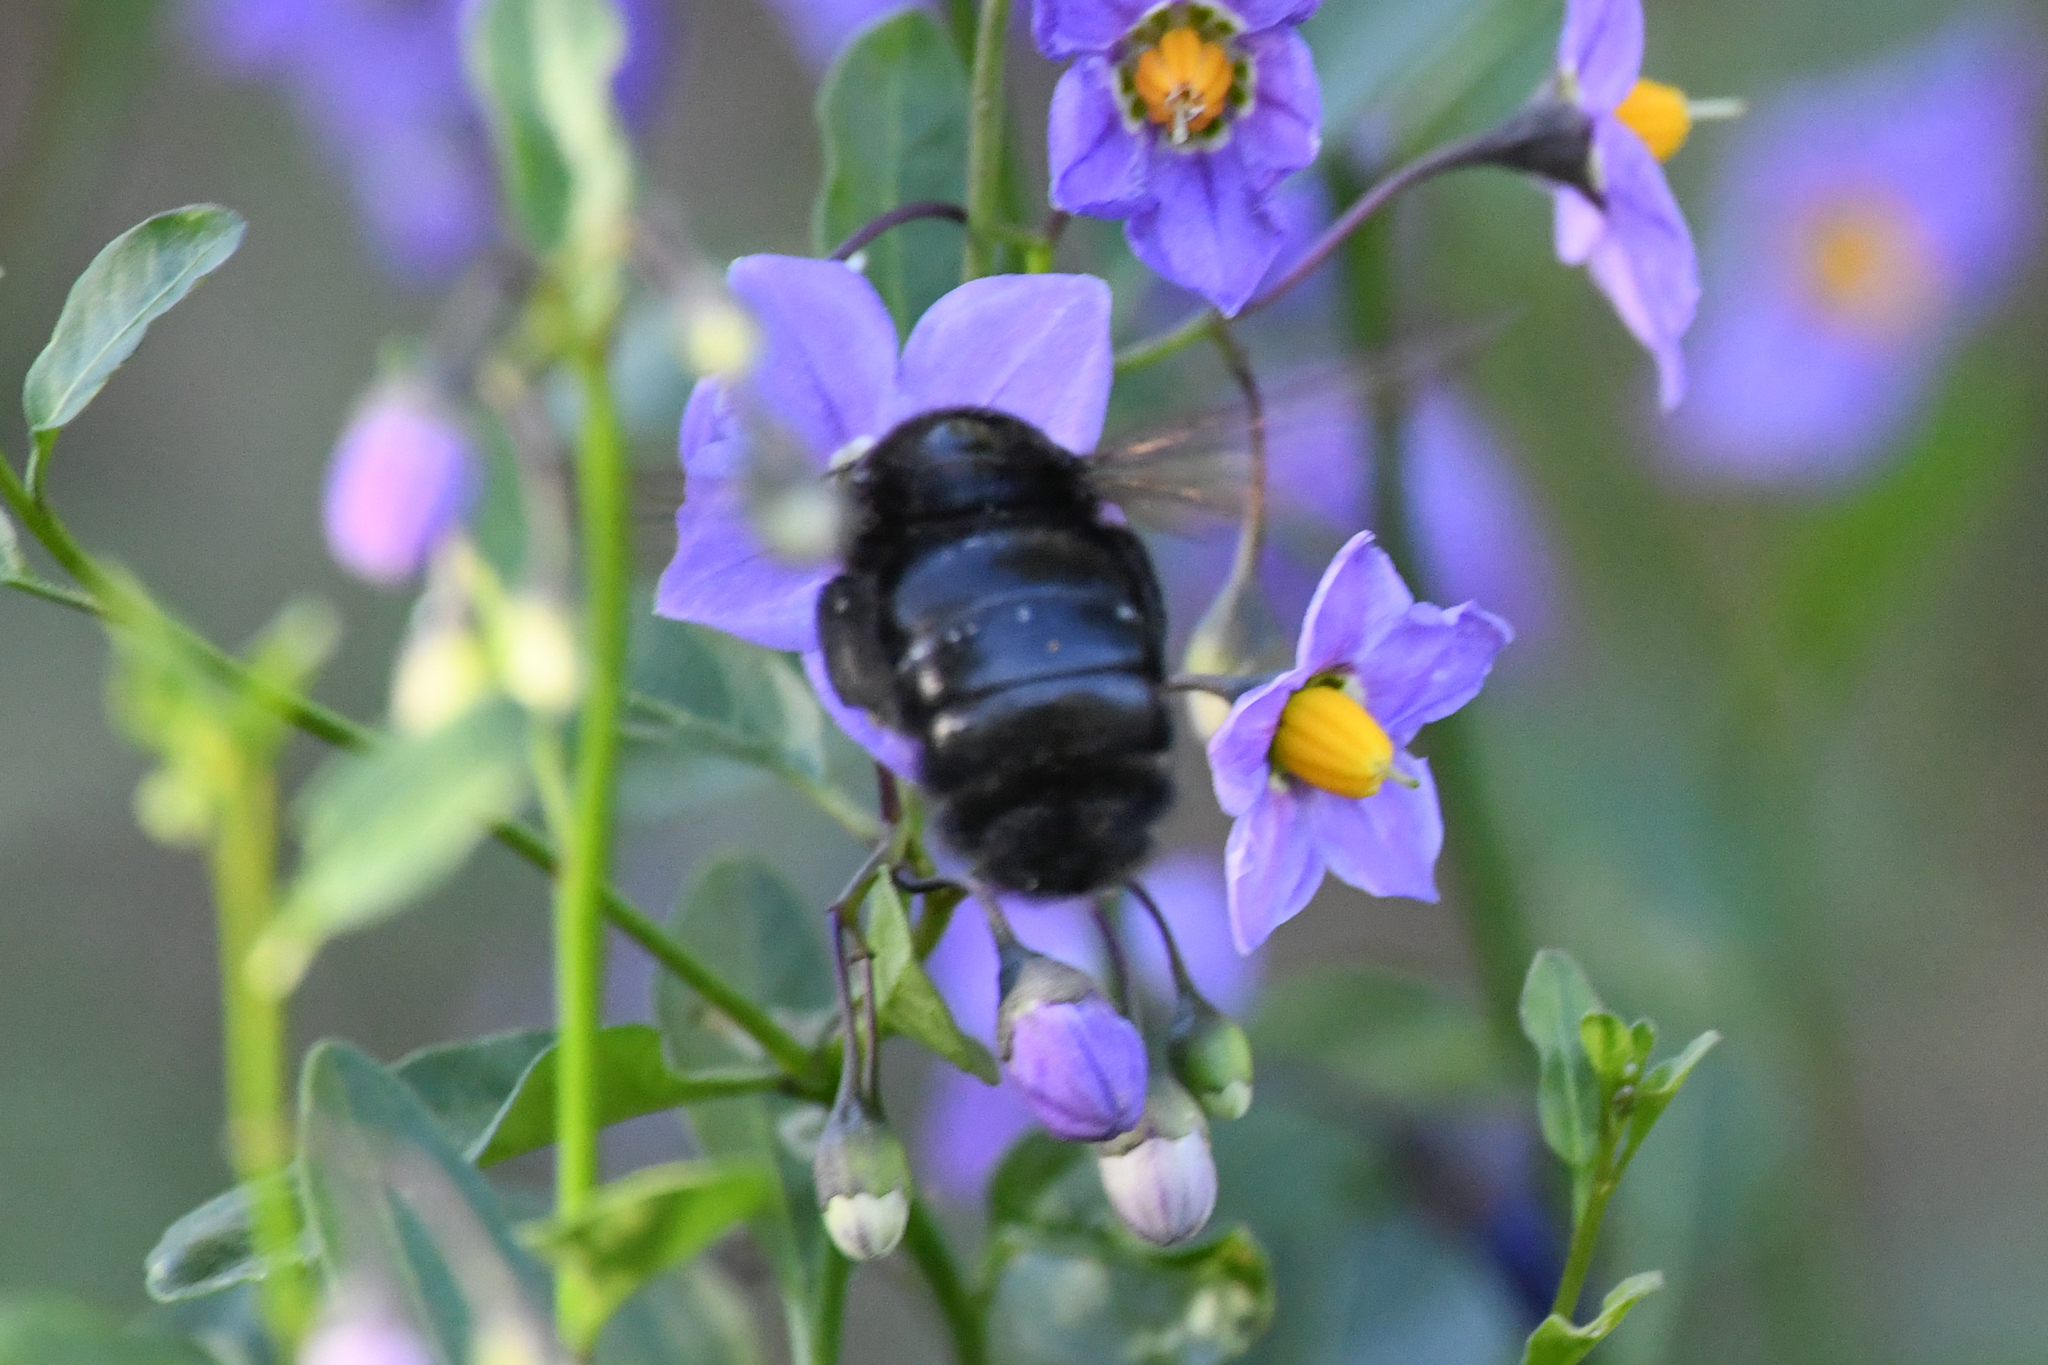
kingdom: Animalia
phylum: Arthropoda
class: Insecta
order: Hymenoptera
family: Apidae
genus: Xylocopa
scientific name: Xylocopa sonorina
